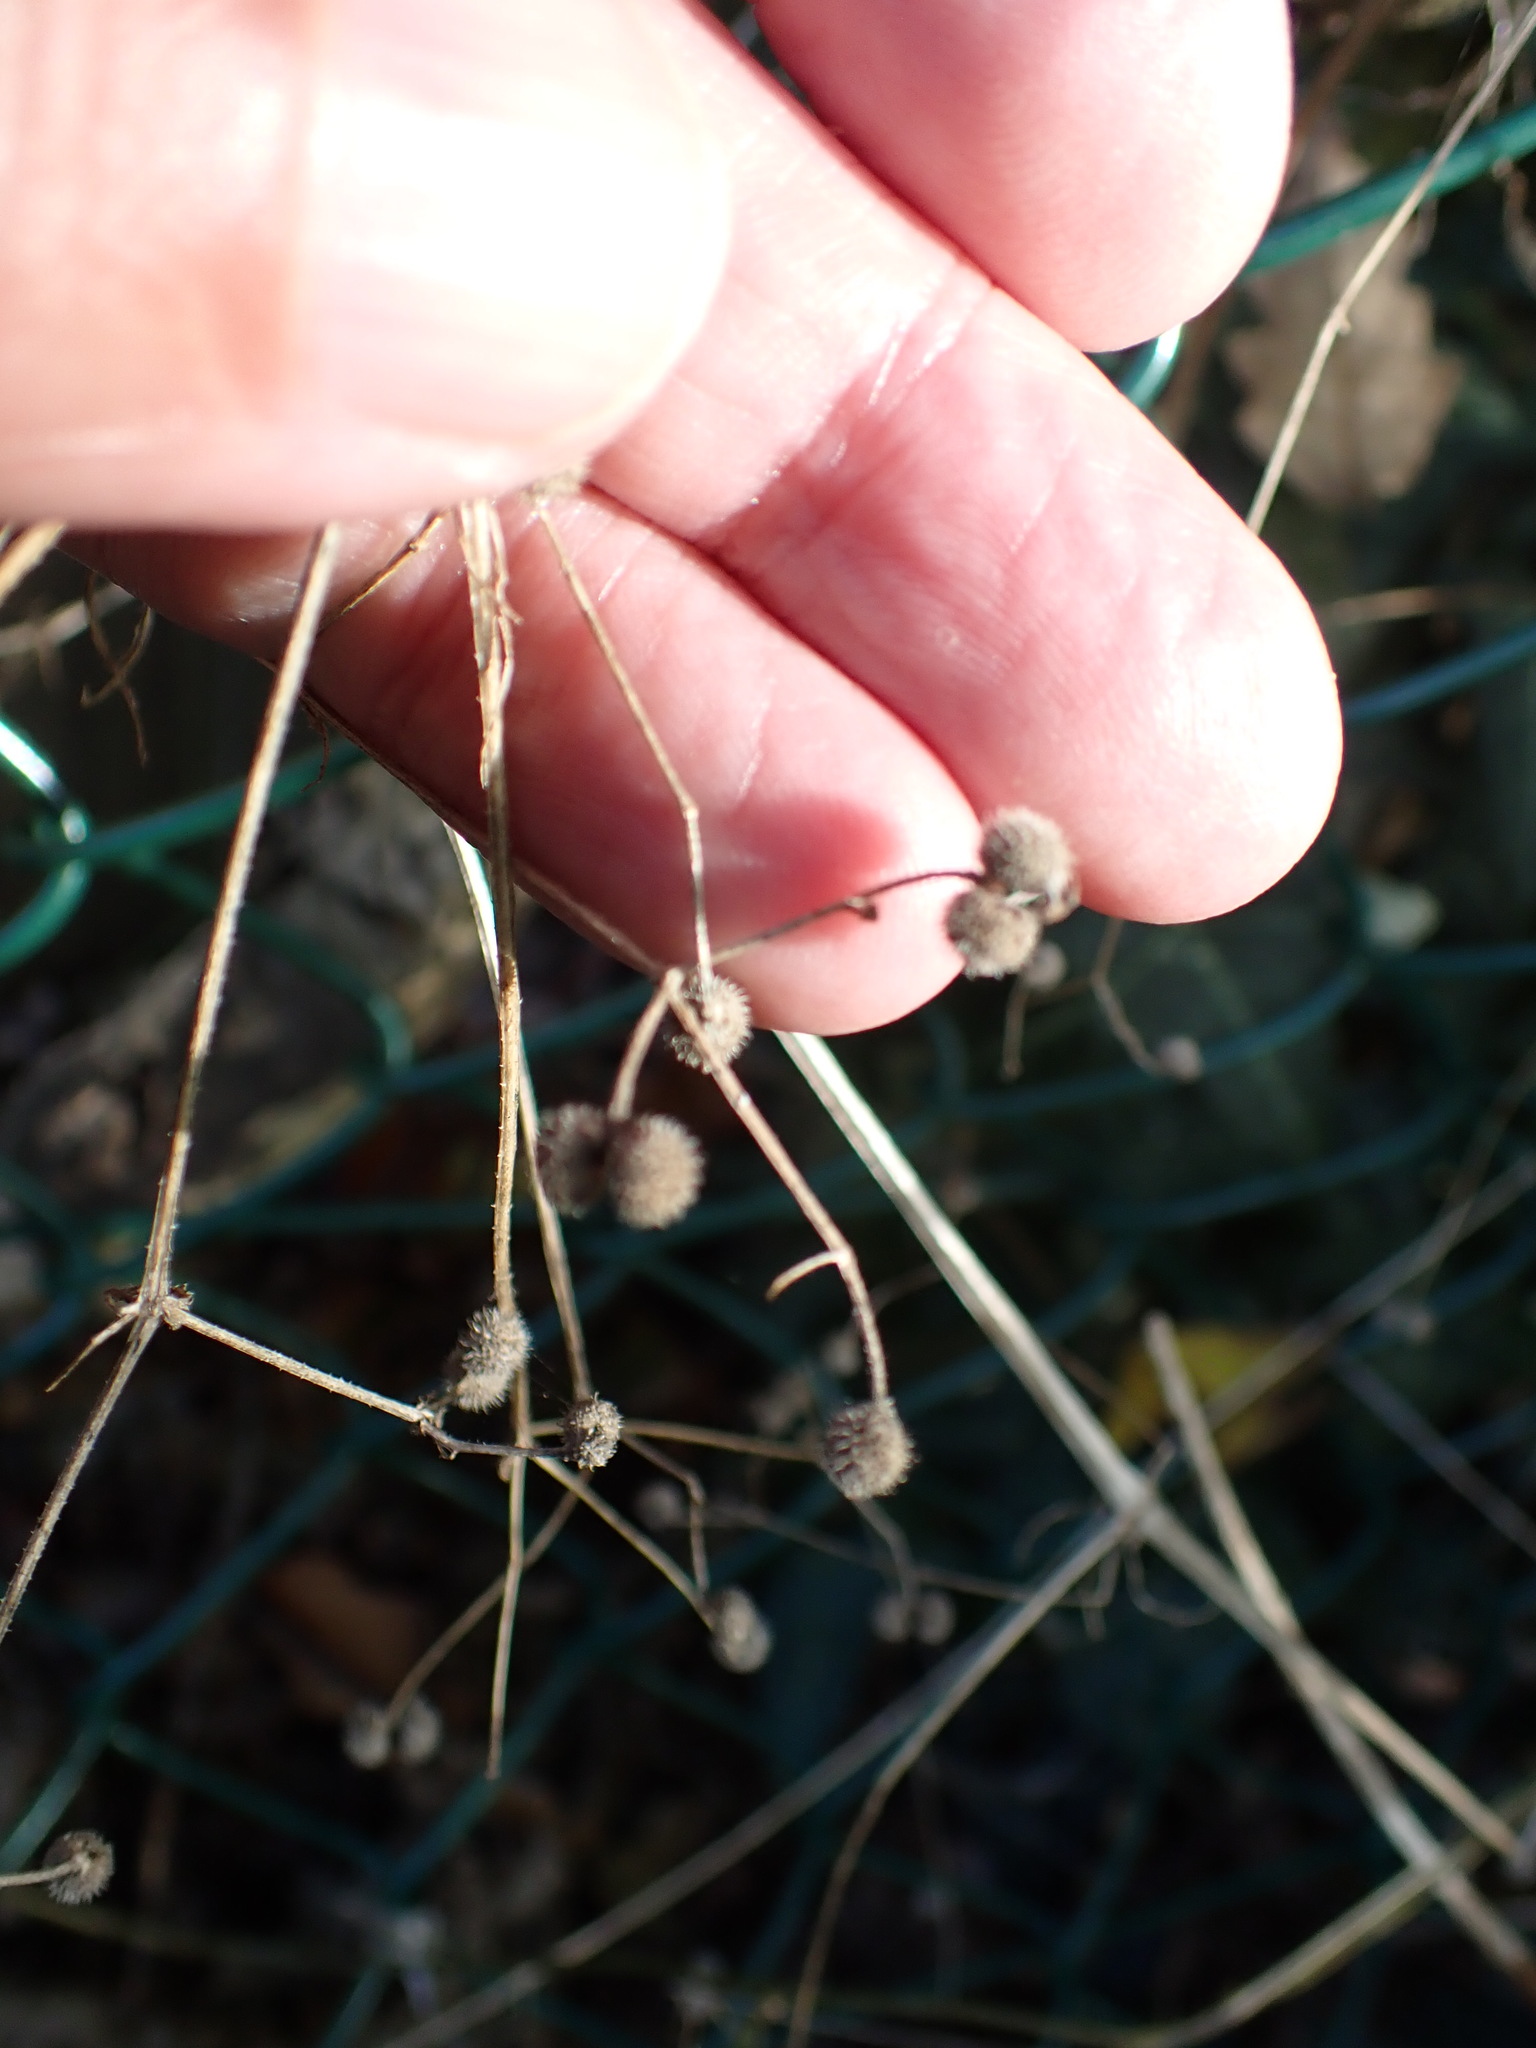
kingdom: Plantae
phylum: Tracheophyta
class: Magnoliopsida
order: Gentianales
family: Rubiaceae
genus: Galium
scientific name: Galium aparine
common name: Cleavers
